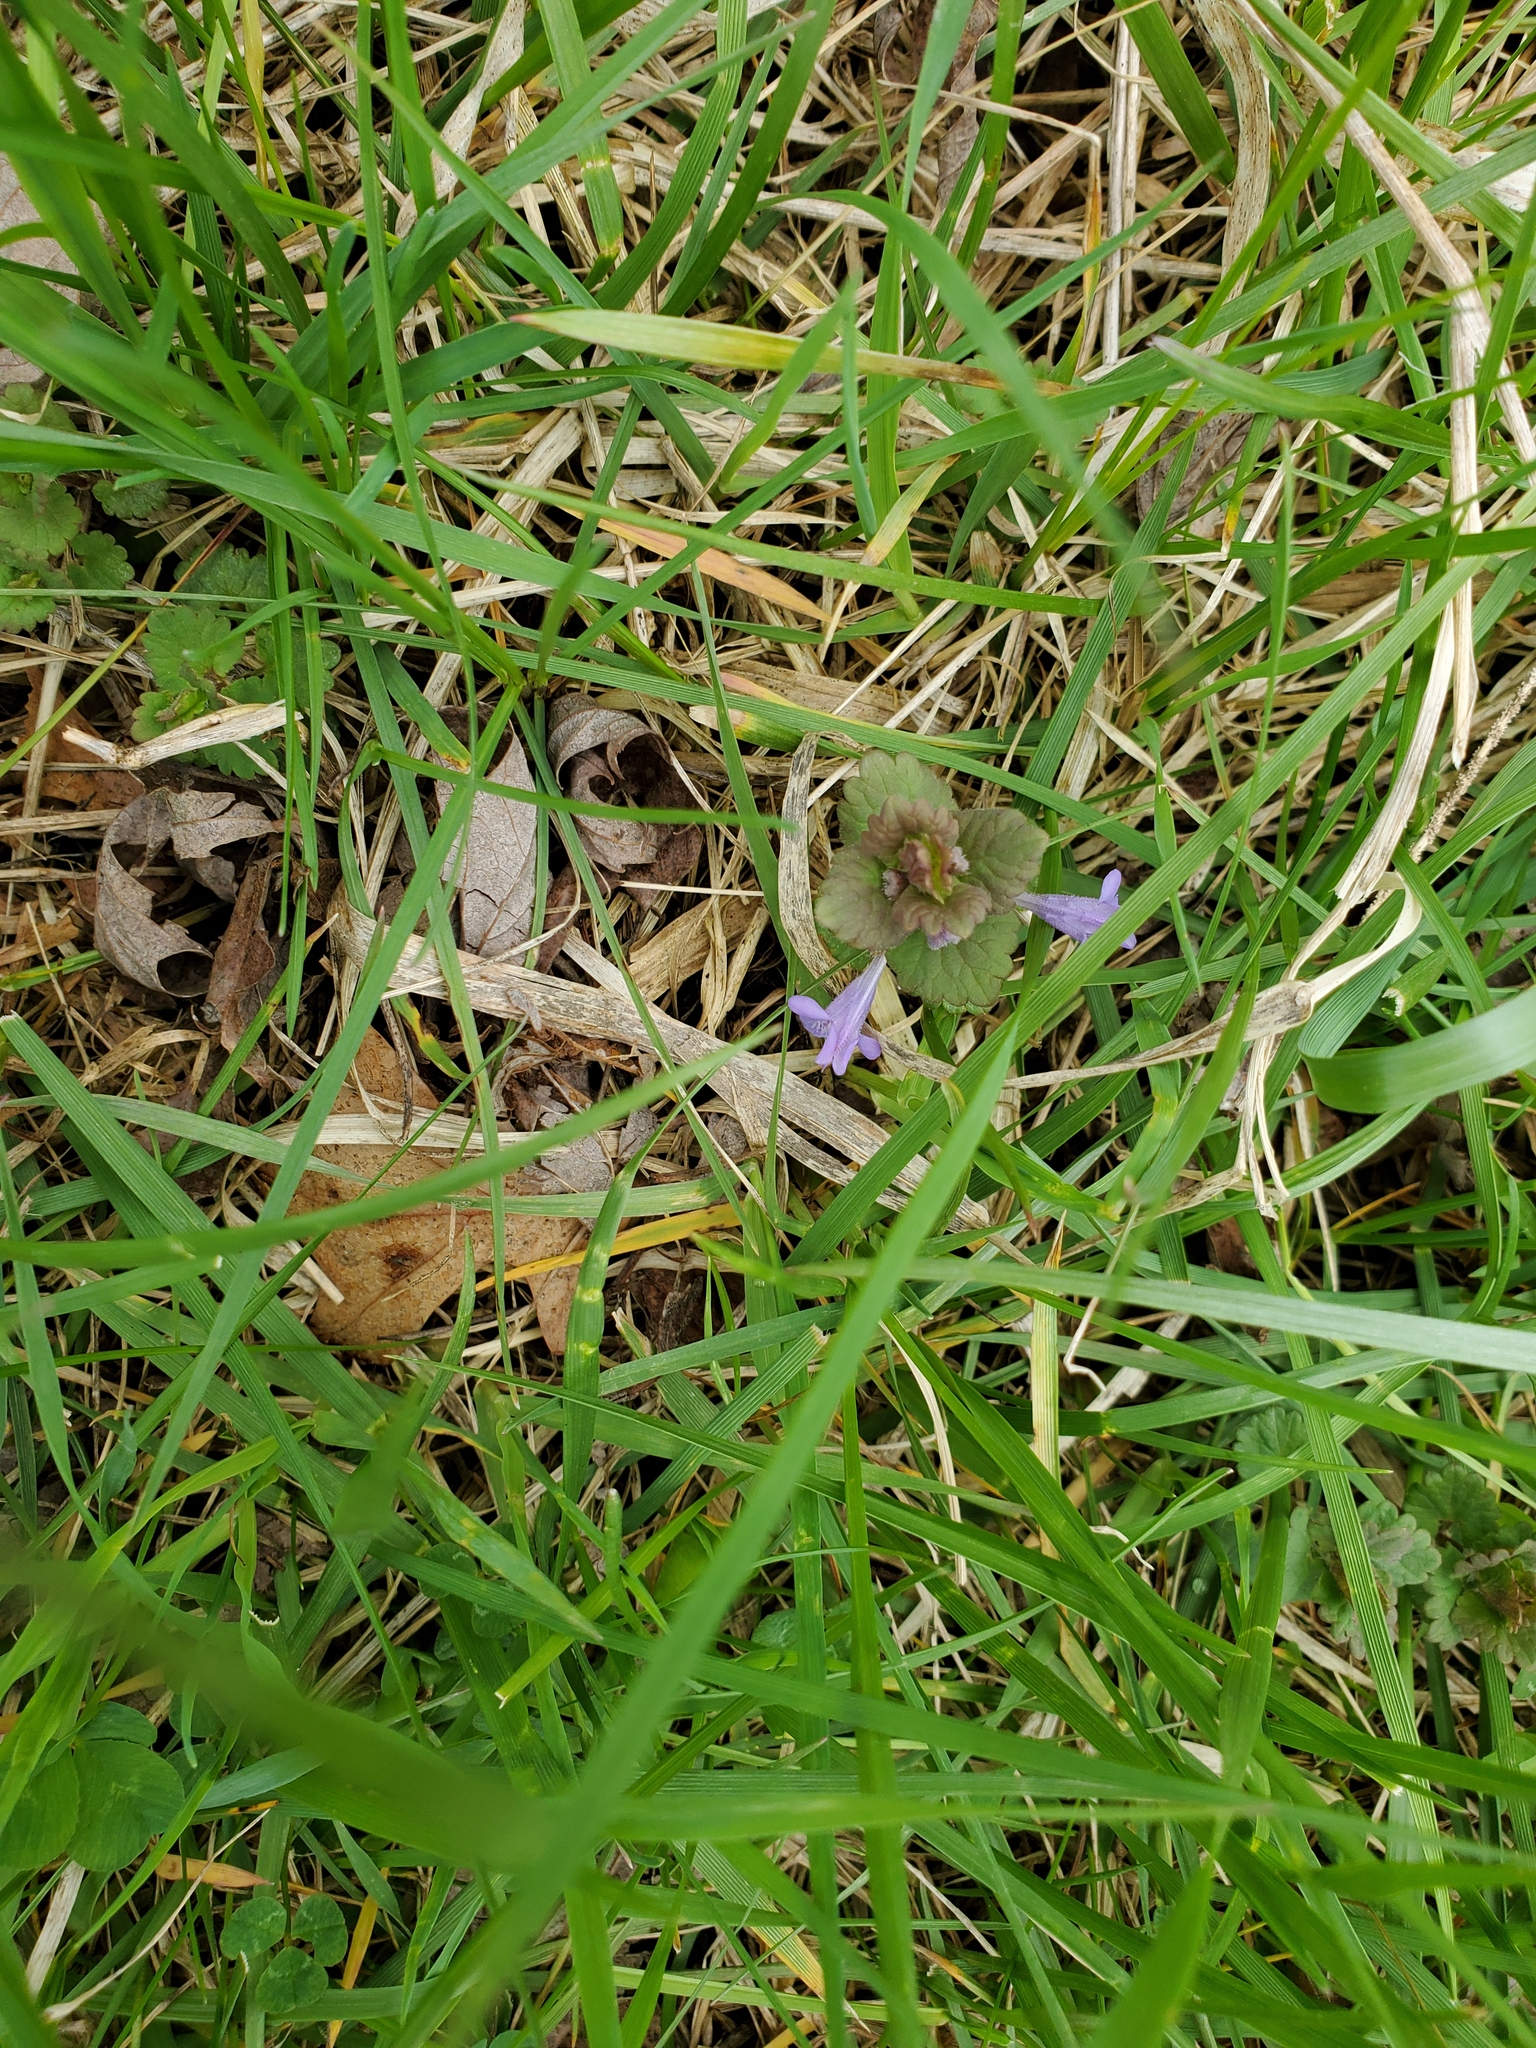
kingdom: Plantae
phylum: Tracheophyta
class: Magnoliopsida
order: Lamiales
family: Lamiaceae
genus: Glechoma
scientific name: Glechoma hederacea
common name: Ground ivy
